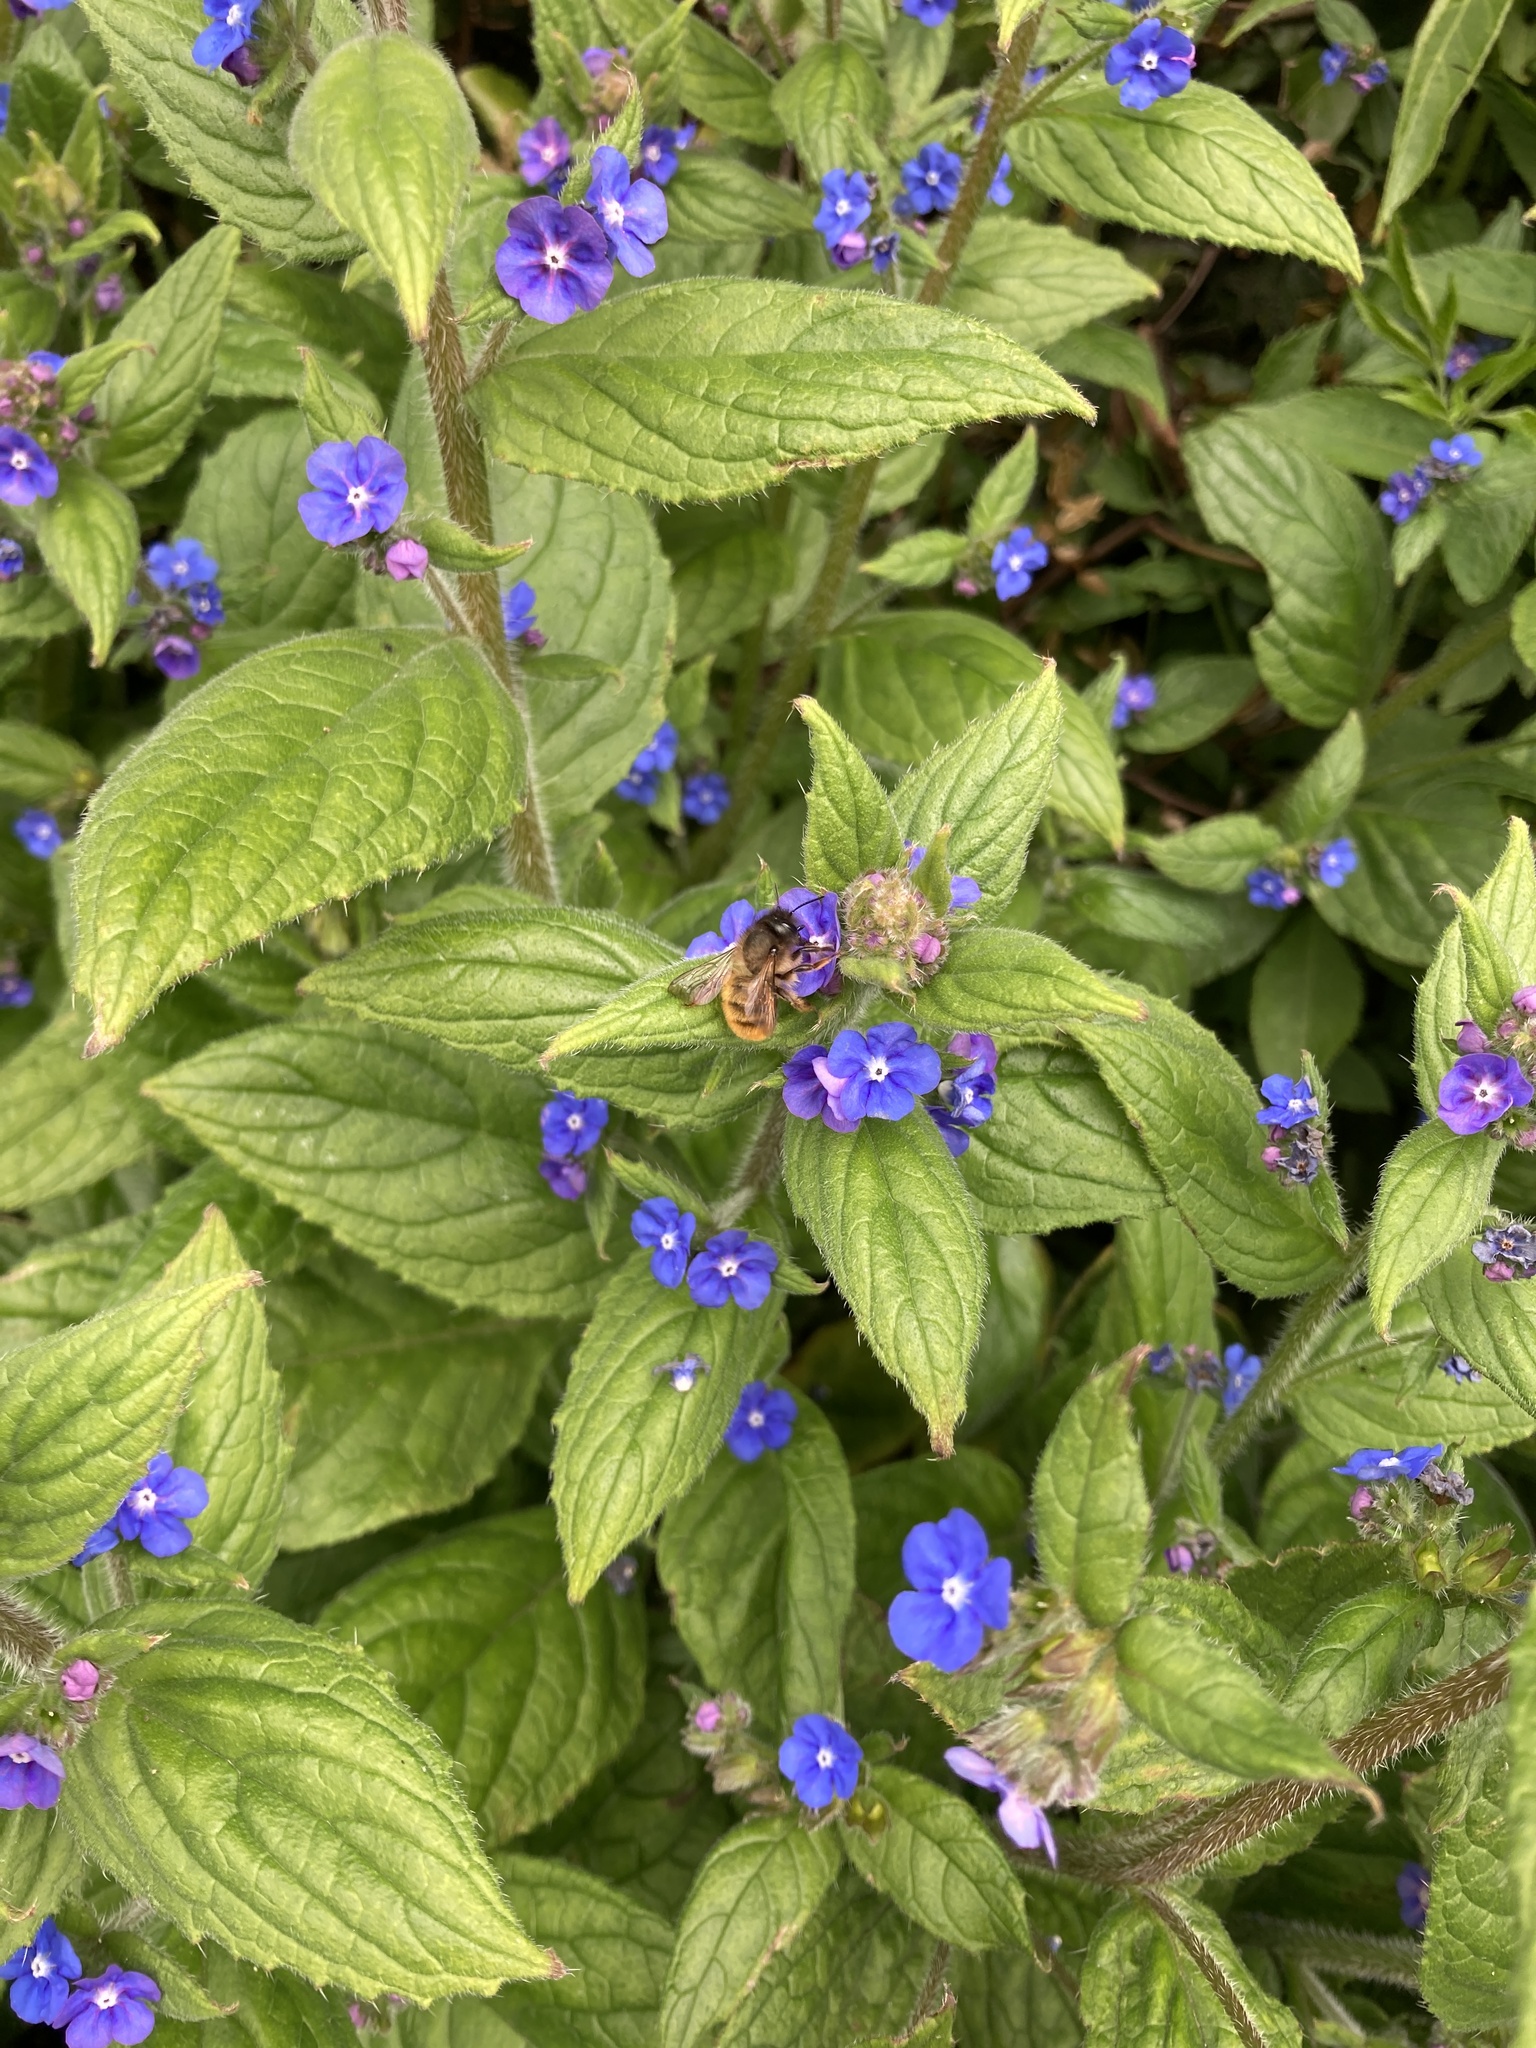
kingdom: Animalia
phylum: Arthropoda
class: Insecta
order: Hymenoptera
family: Megachilidae
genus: Osmia
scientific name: Osmia bicornis
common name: Red mason bee
